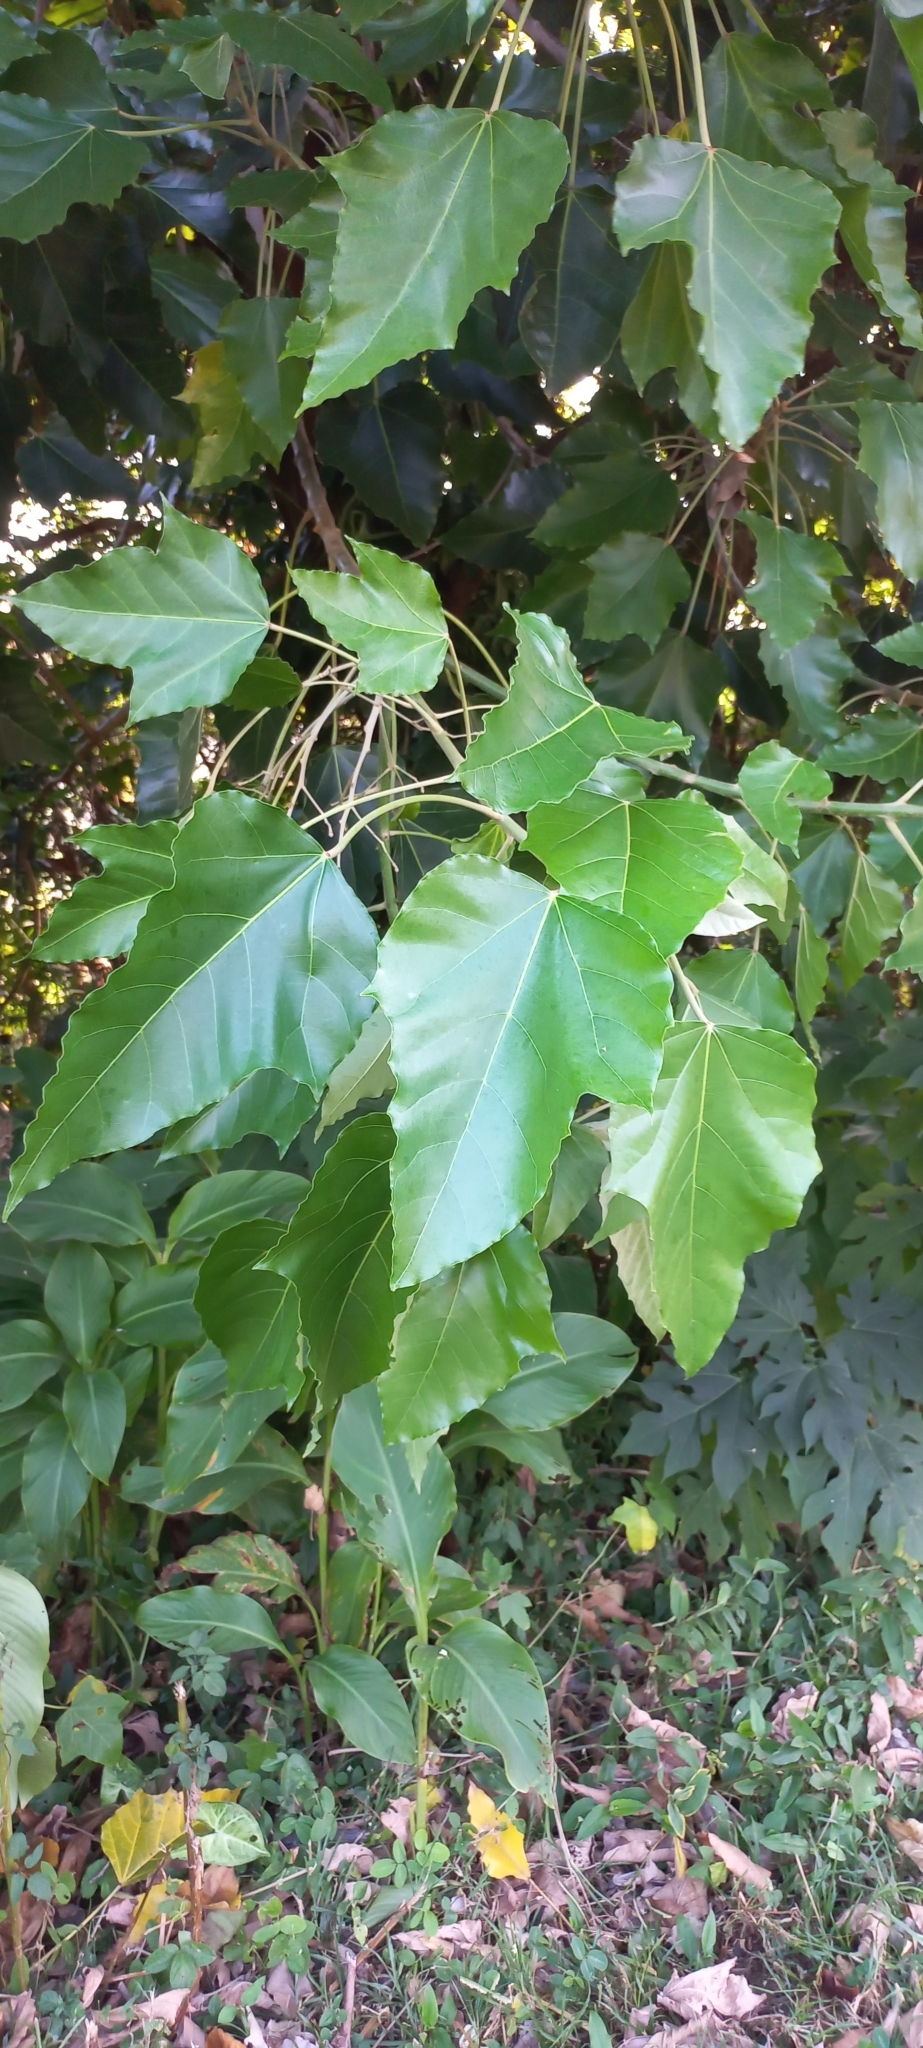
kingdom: Plantae
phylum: Tracheophyta
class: Magnoliopsida
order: Malpighiales
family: Euphorbiaceae
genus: Aleurites
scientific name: Aleurites moluccanus
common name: Candlenut tree
